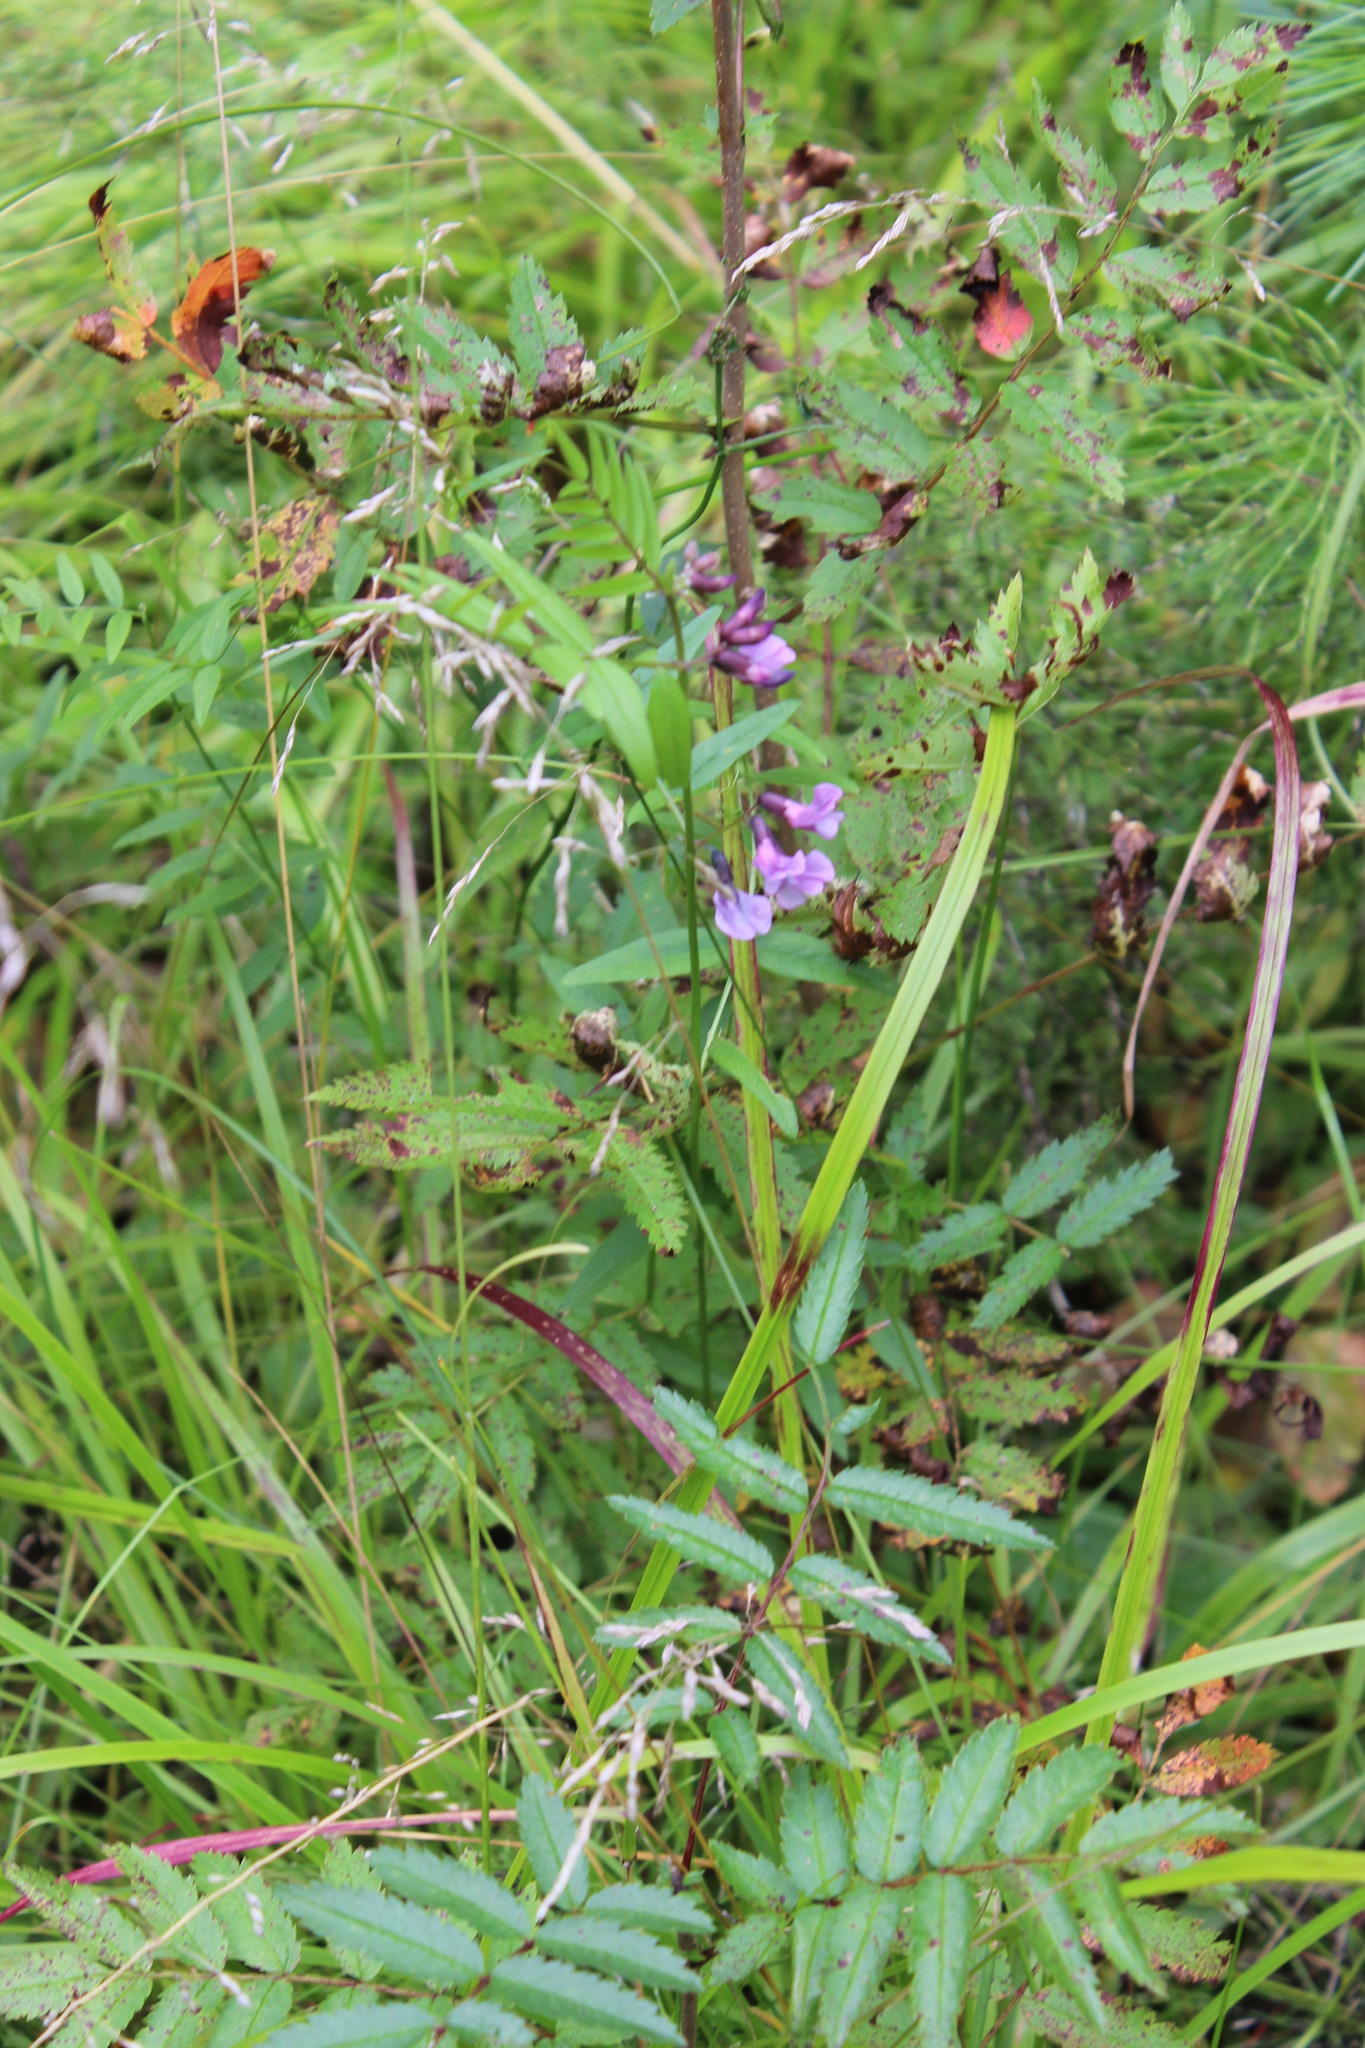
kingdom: Plantae
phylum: Tracheophyta
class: Magnoliopsida
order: Fabales
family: Fabaceae
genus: Vicia
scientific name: Vicia sepium
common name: Bush vetch
